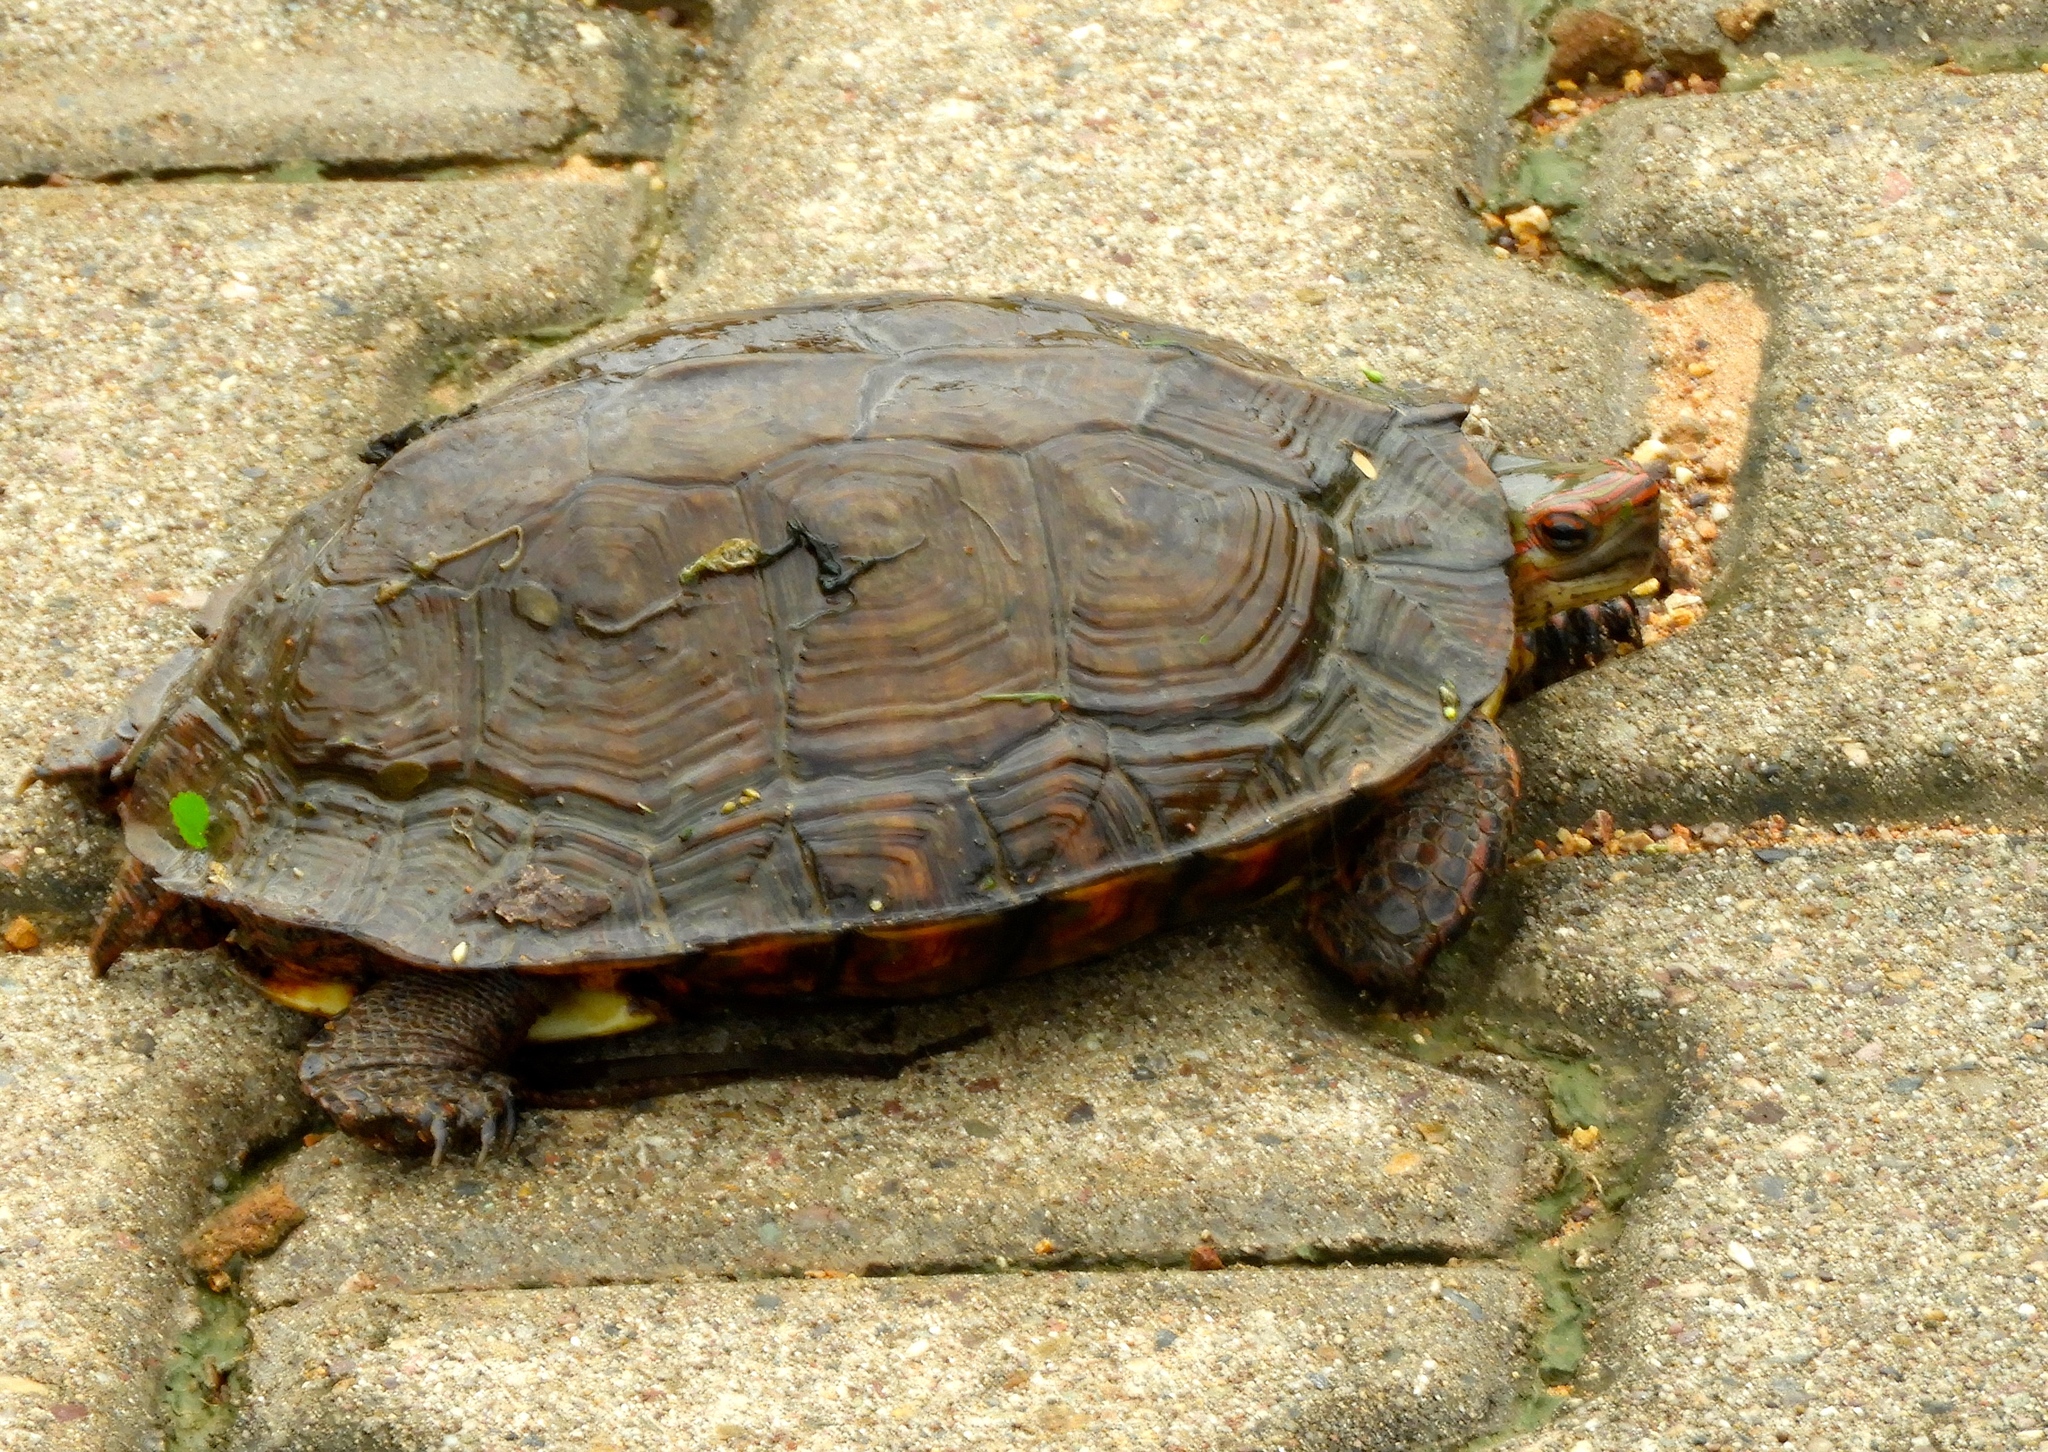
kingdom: Animalia
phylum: Chordata
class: Testudines
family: Geoemydidae
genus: Rhinoclemmys
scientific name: Rhinoclemmys pulcherrima
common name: Painted wood turtle
